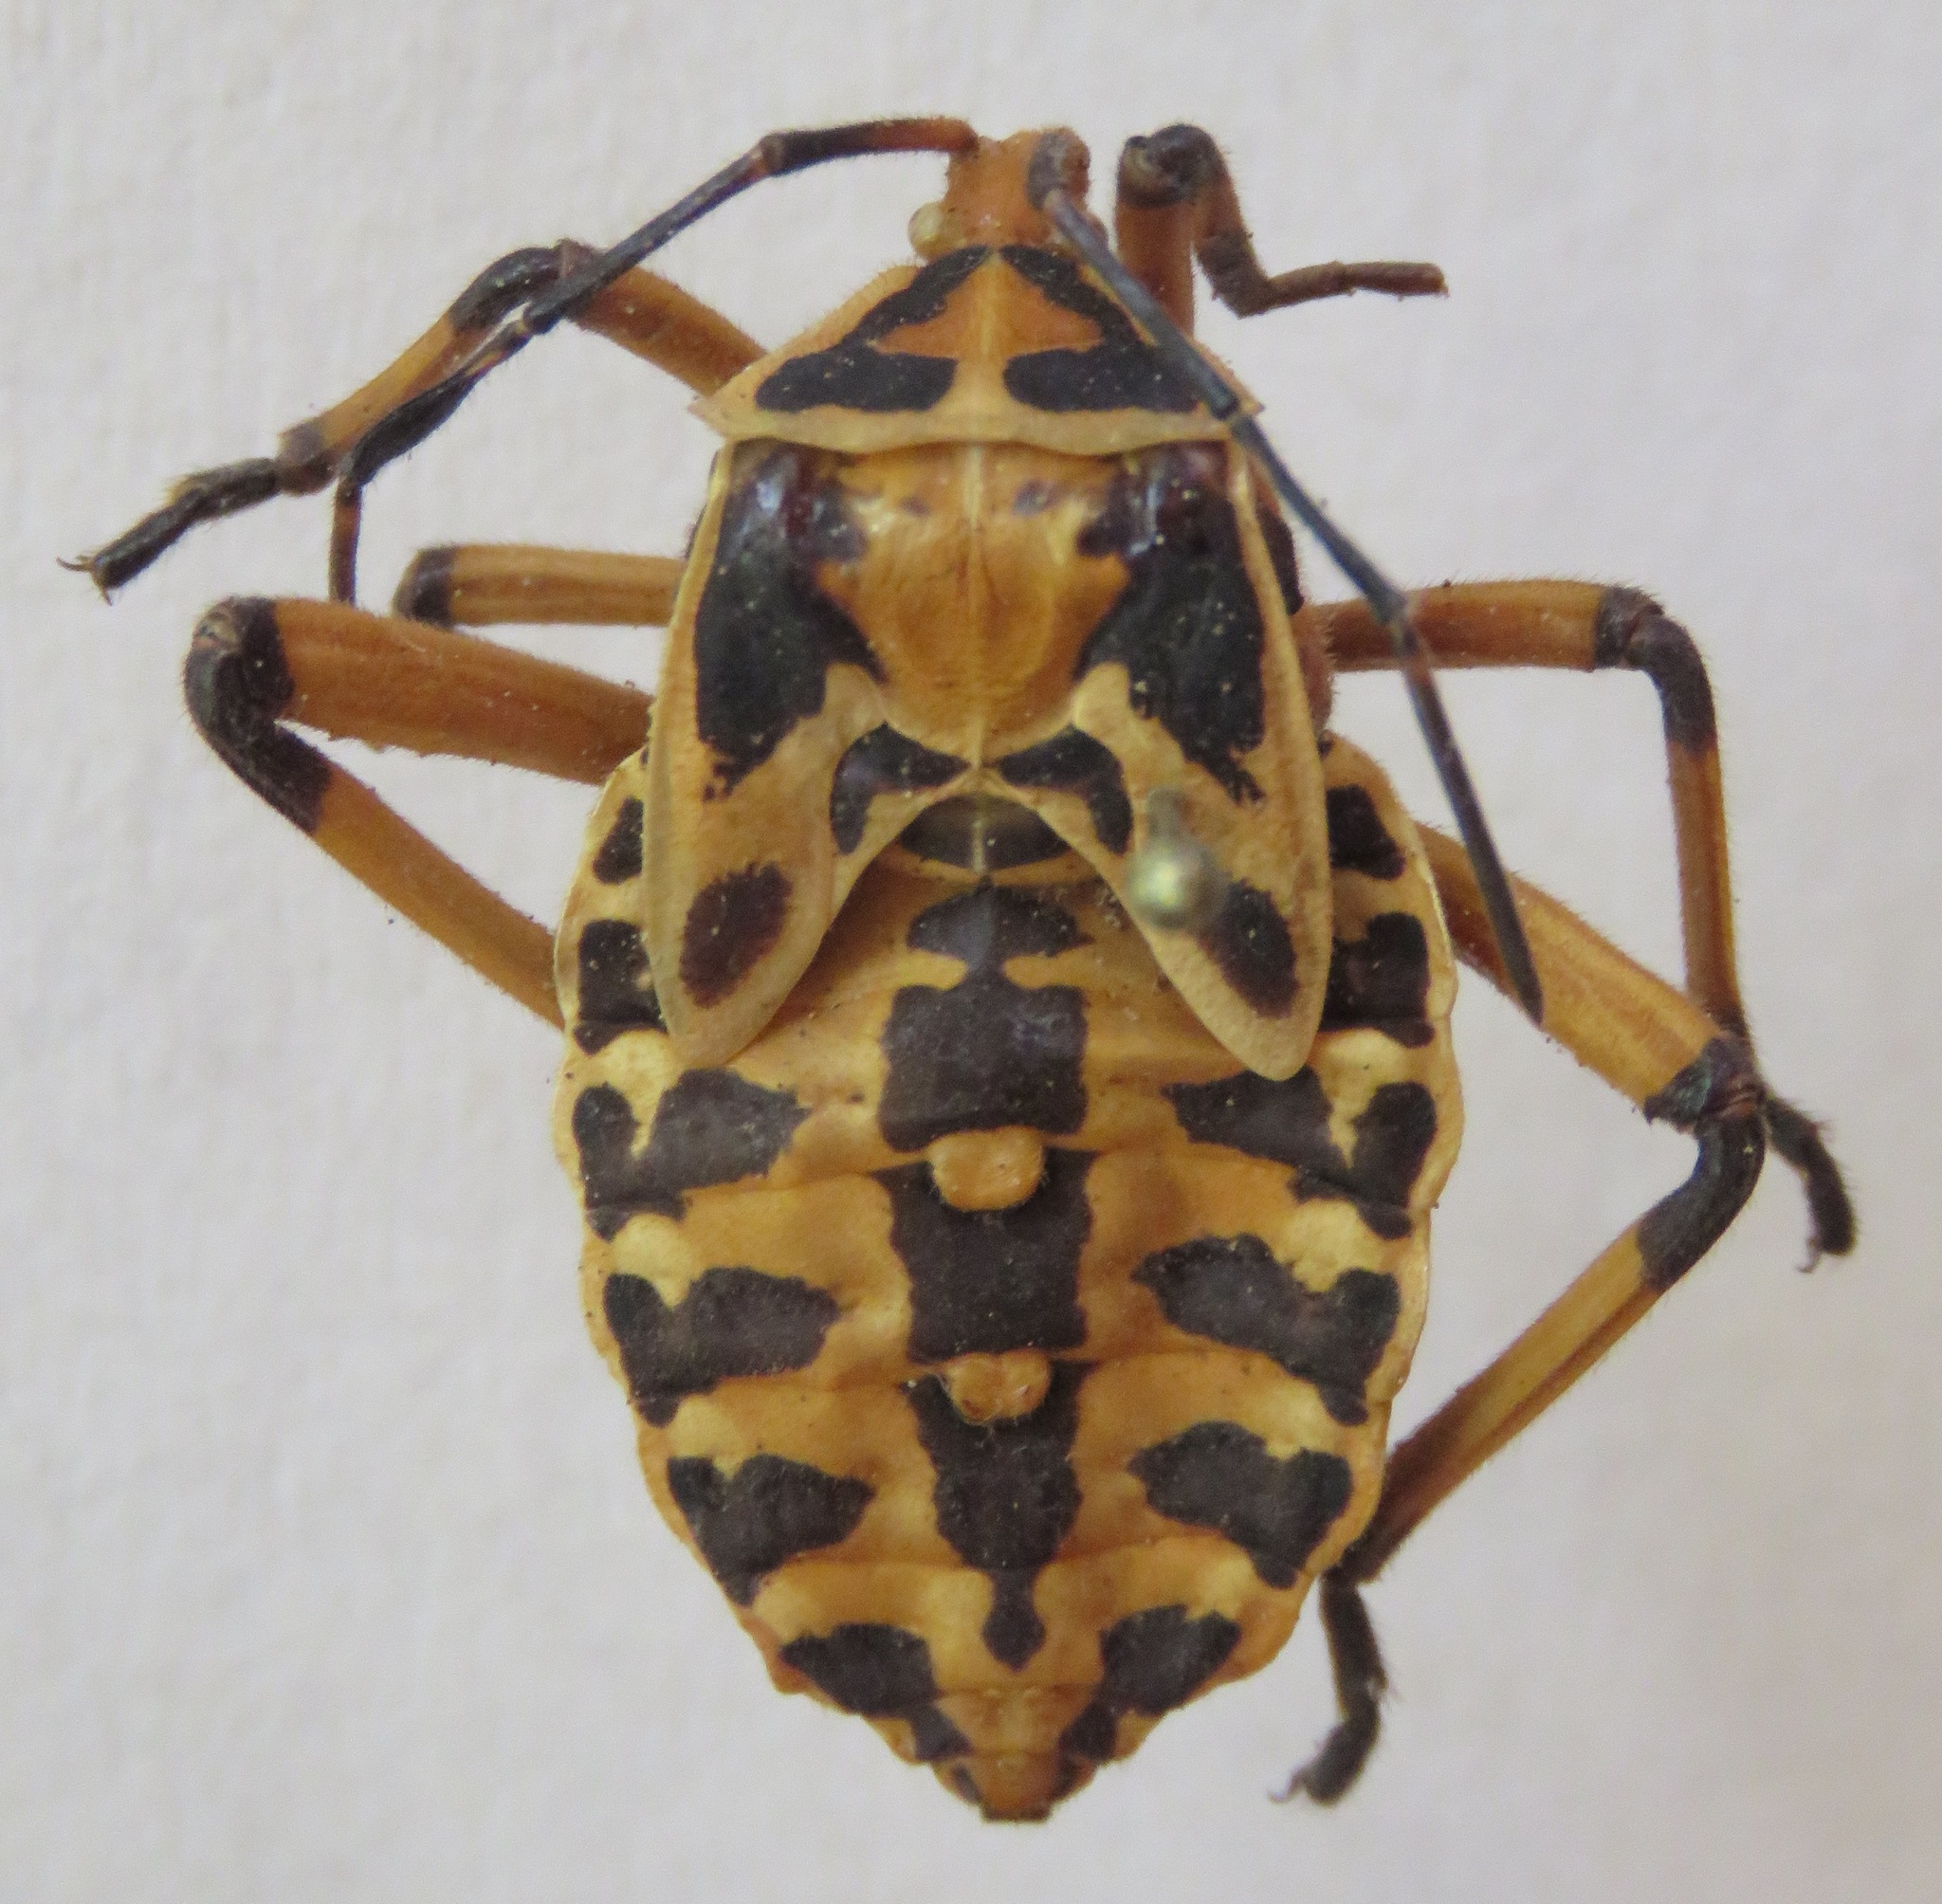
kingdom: Animalia
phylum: Arthropoda
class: Insecta
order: Hemiptera
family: Coreidae
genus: Pachylis
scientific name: Pachylis nervosus
